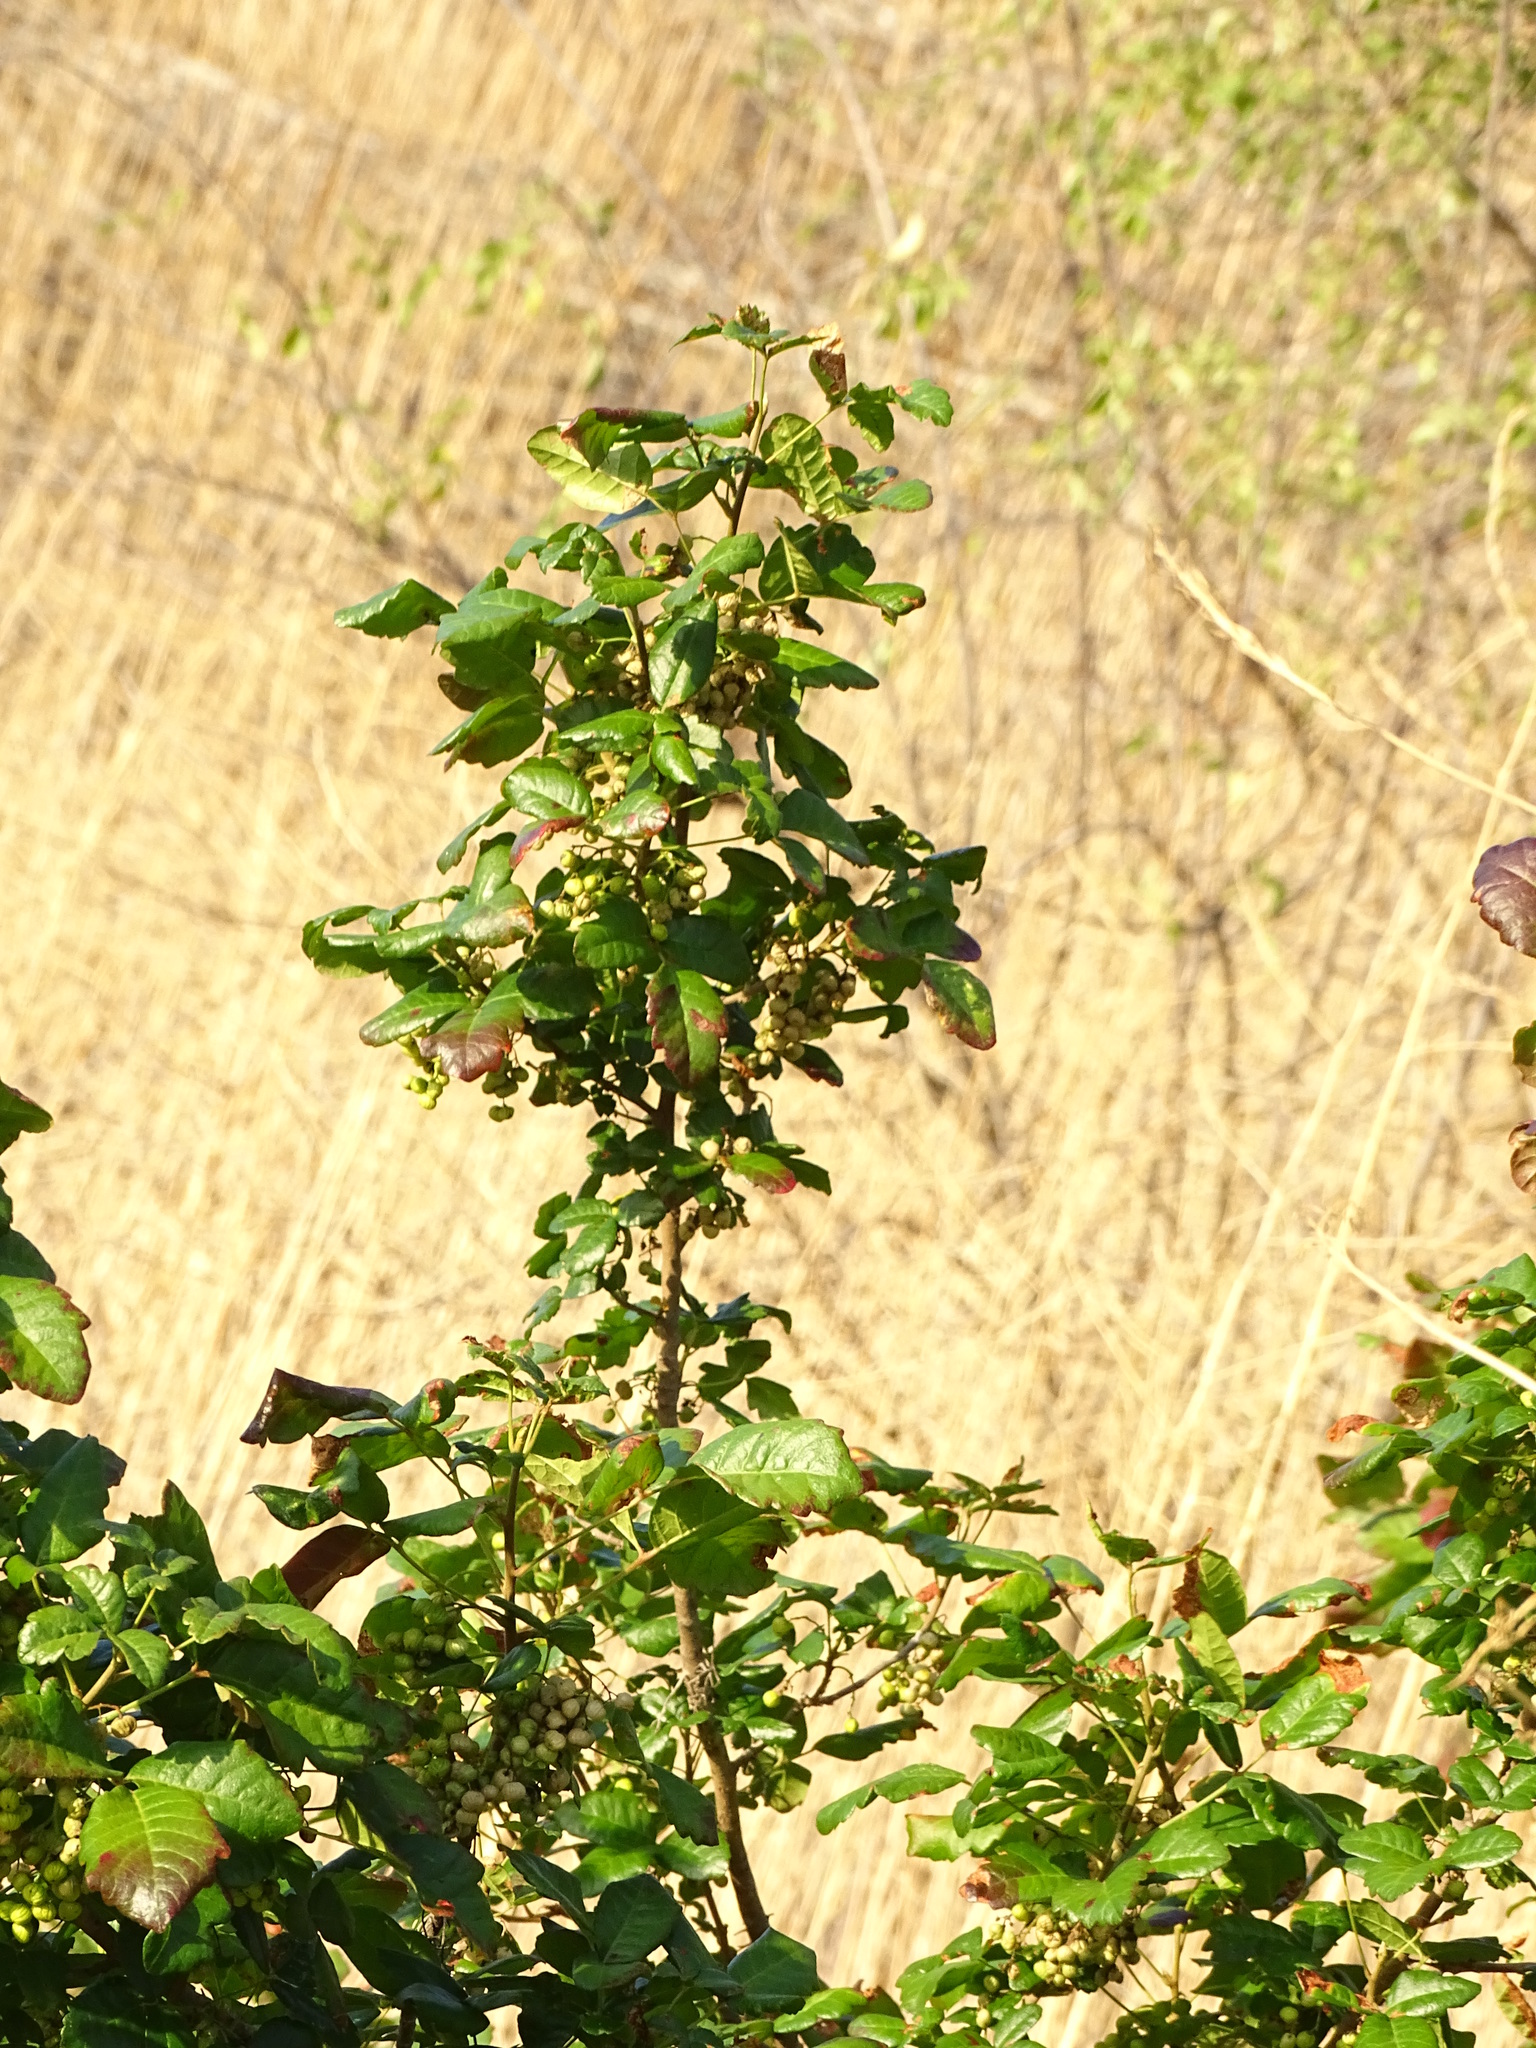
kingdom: Plantae
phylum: Tracheophyta
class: Magnoliopsida
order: Sapindales
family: Anacardiaceae
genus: Toxicodendron
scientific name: Toxicodendron diversilobum
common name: Pacific poison-oak
